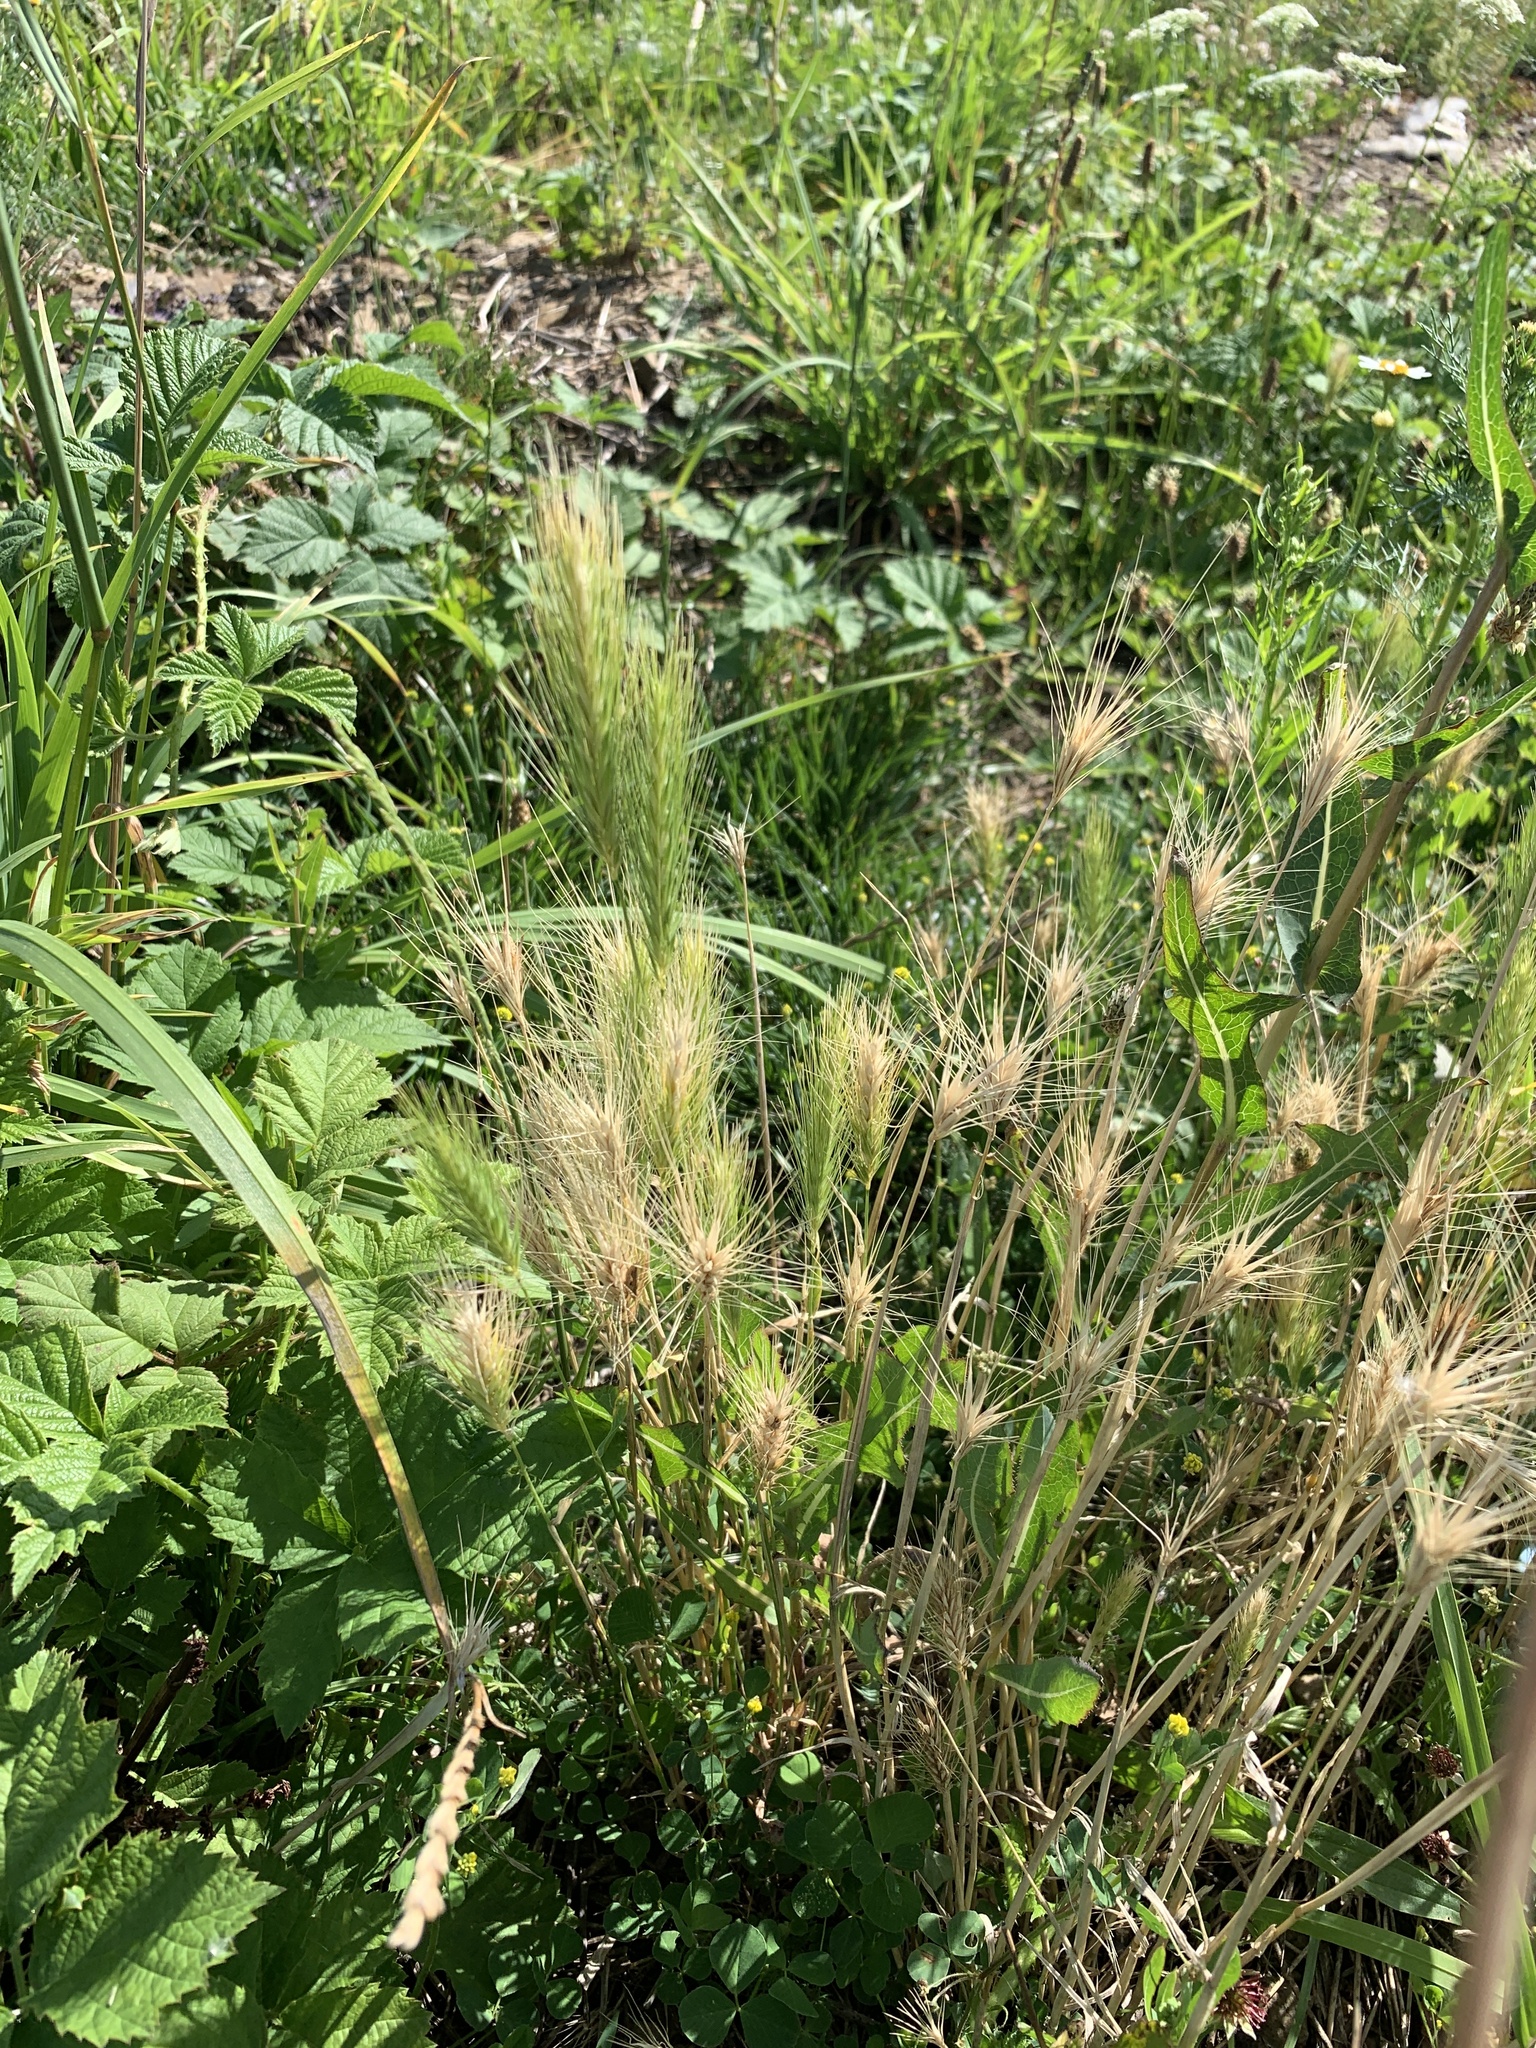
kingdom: Plantae
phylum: Tracheophyta
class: Liliopsida
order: Poales
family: Poaceae
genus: Hordeum
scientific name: Hordeum murinum
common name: Wall barley
